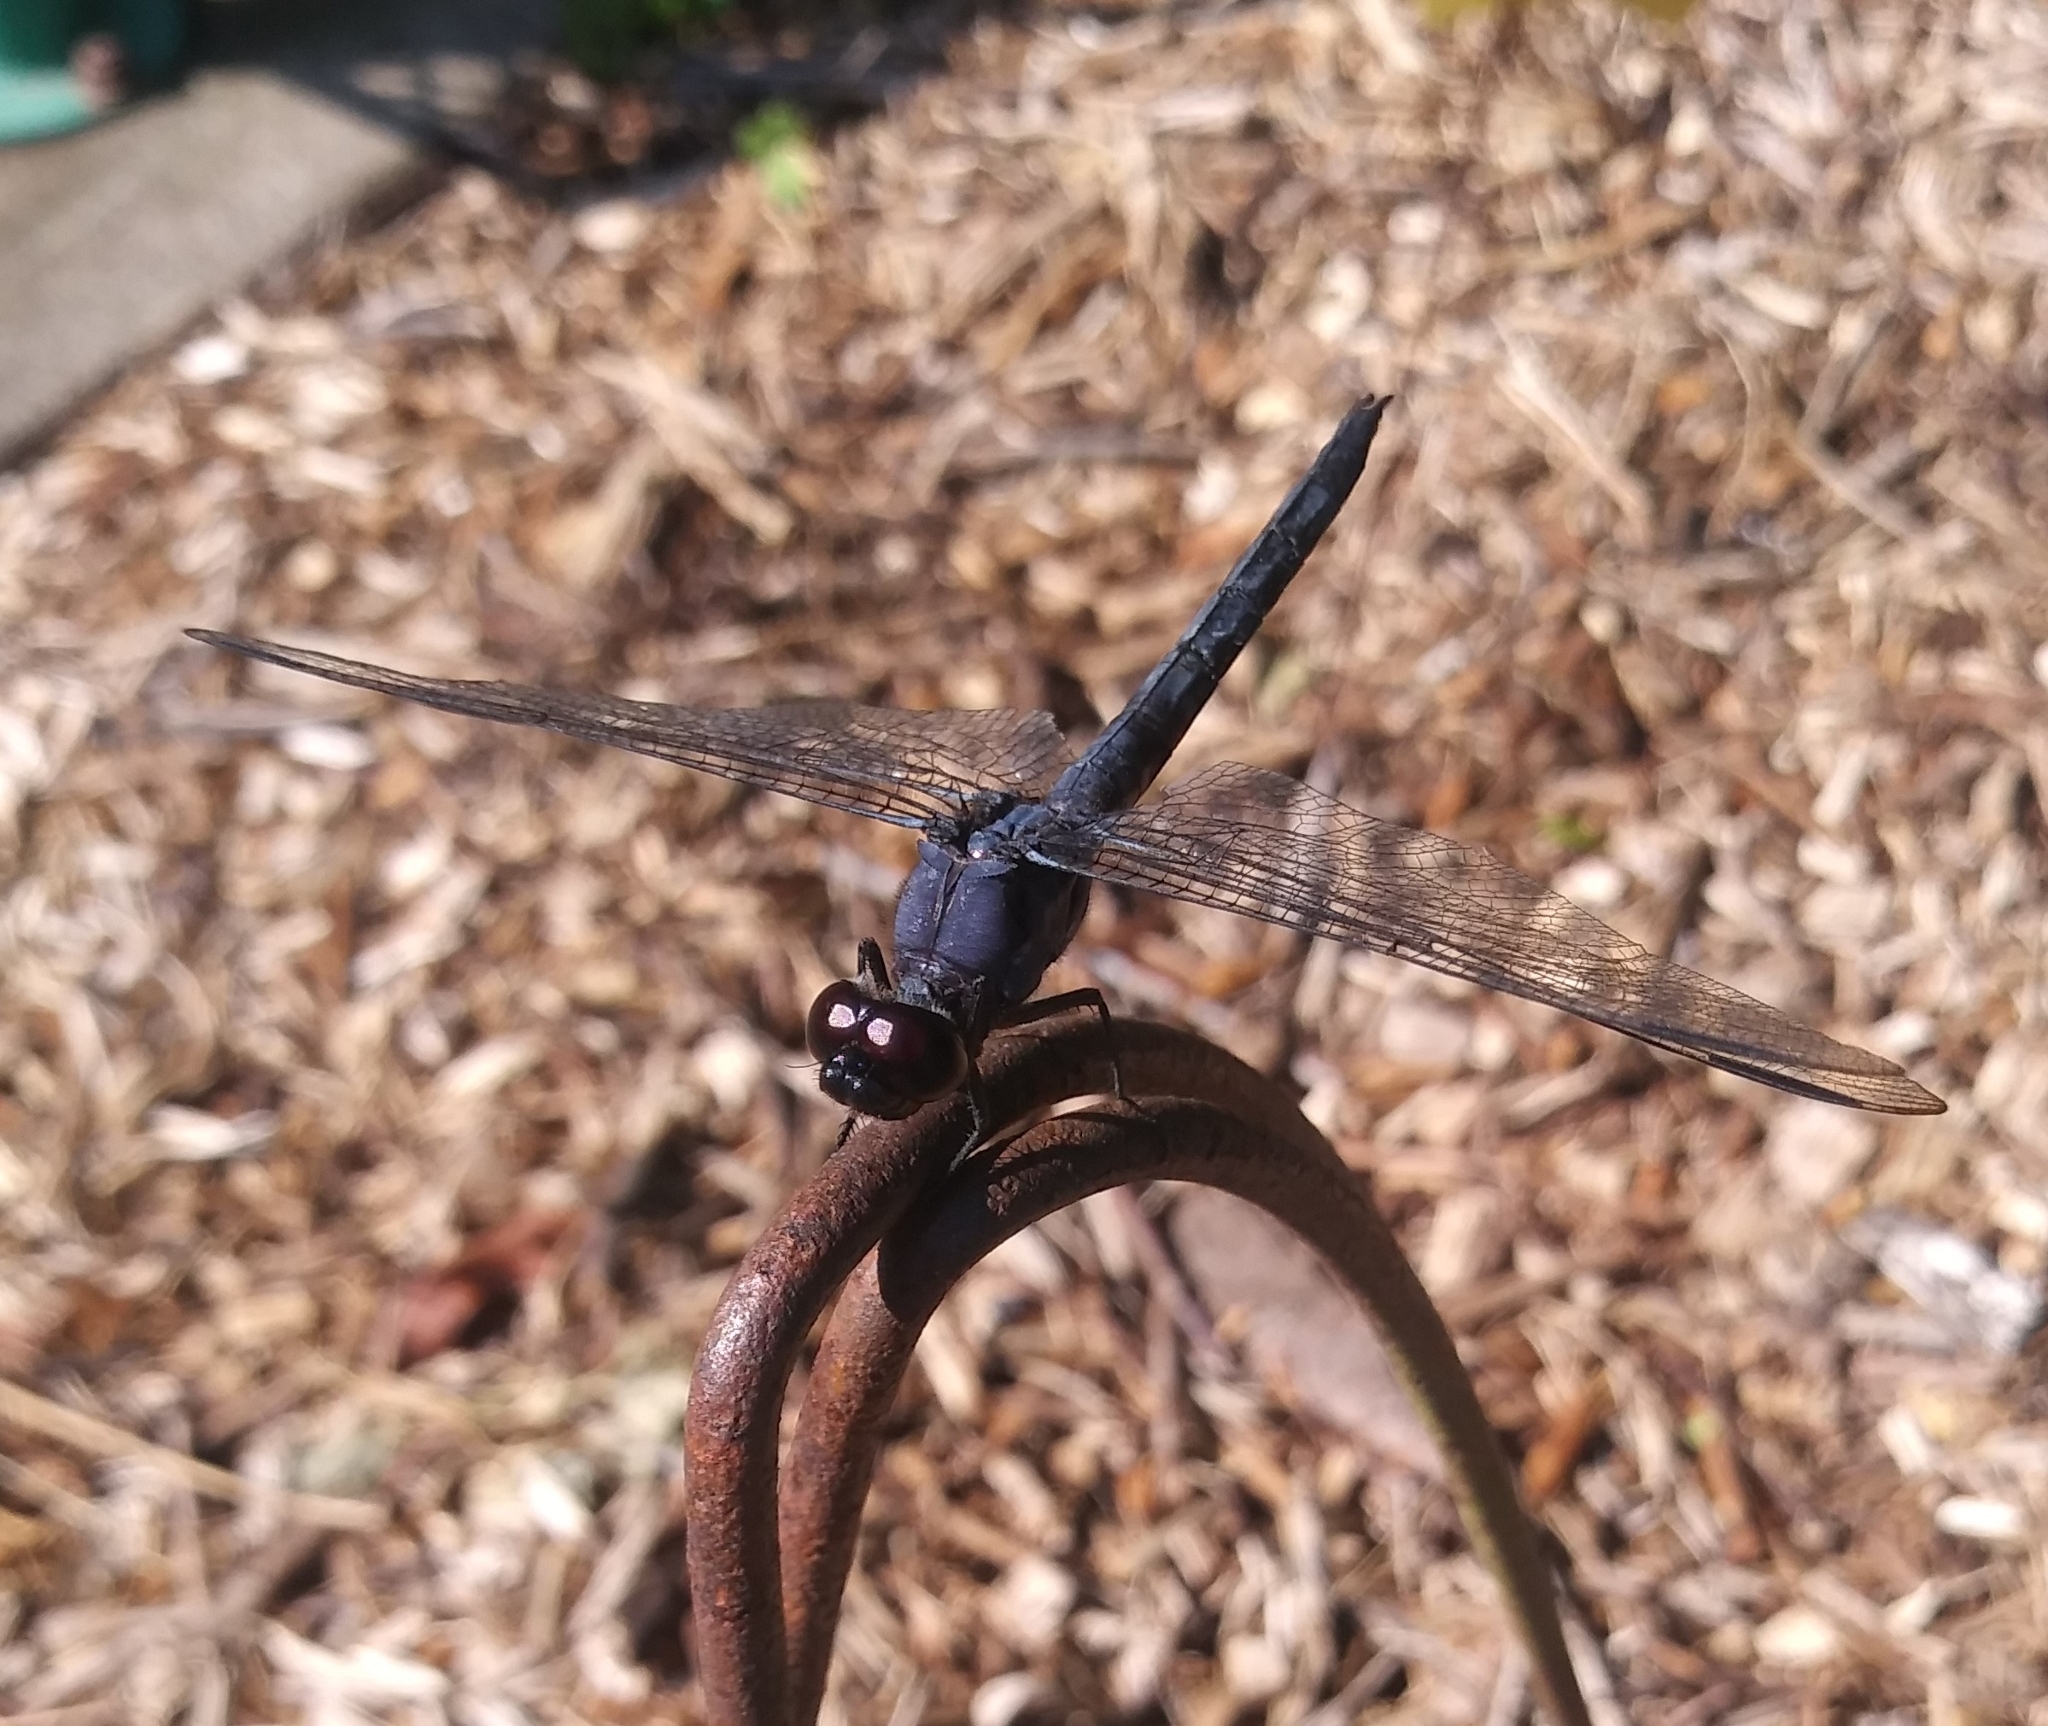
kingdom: Animalia
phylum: Arthropoda
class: Insecta
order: Odonata
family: Libellulidae
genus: Libellula
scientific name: Libellula incesta
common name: Slaty skimmer
